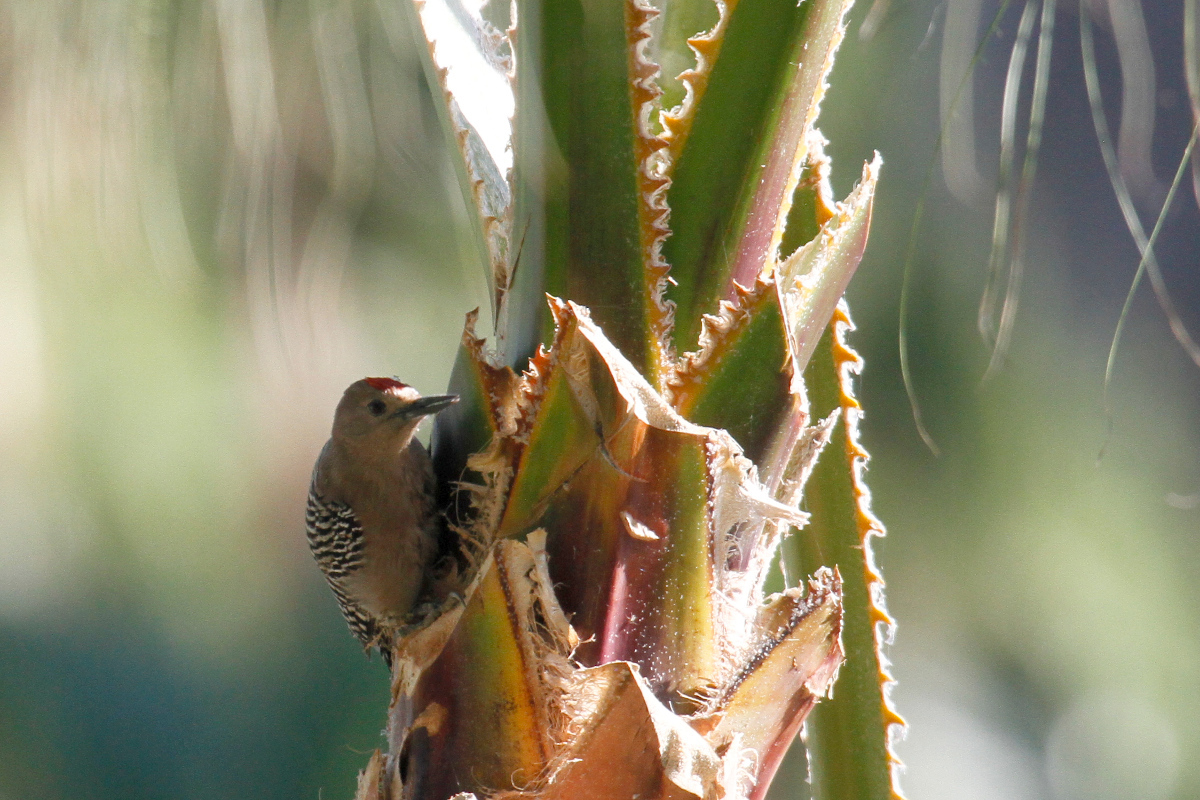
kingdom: Animalia
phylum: Chordata
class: Aves
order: Piciformes
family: Picidae
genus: Melanerpes
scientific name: Melanerpes uropygialis
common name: Gila woodpecker
